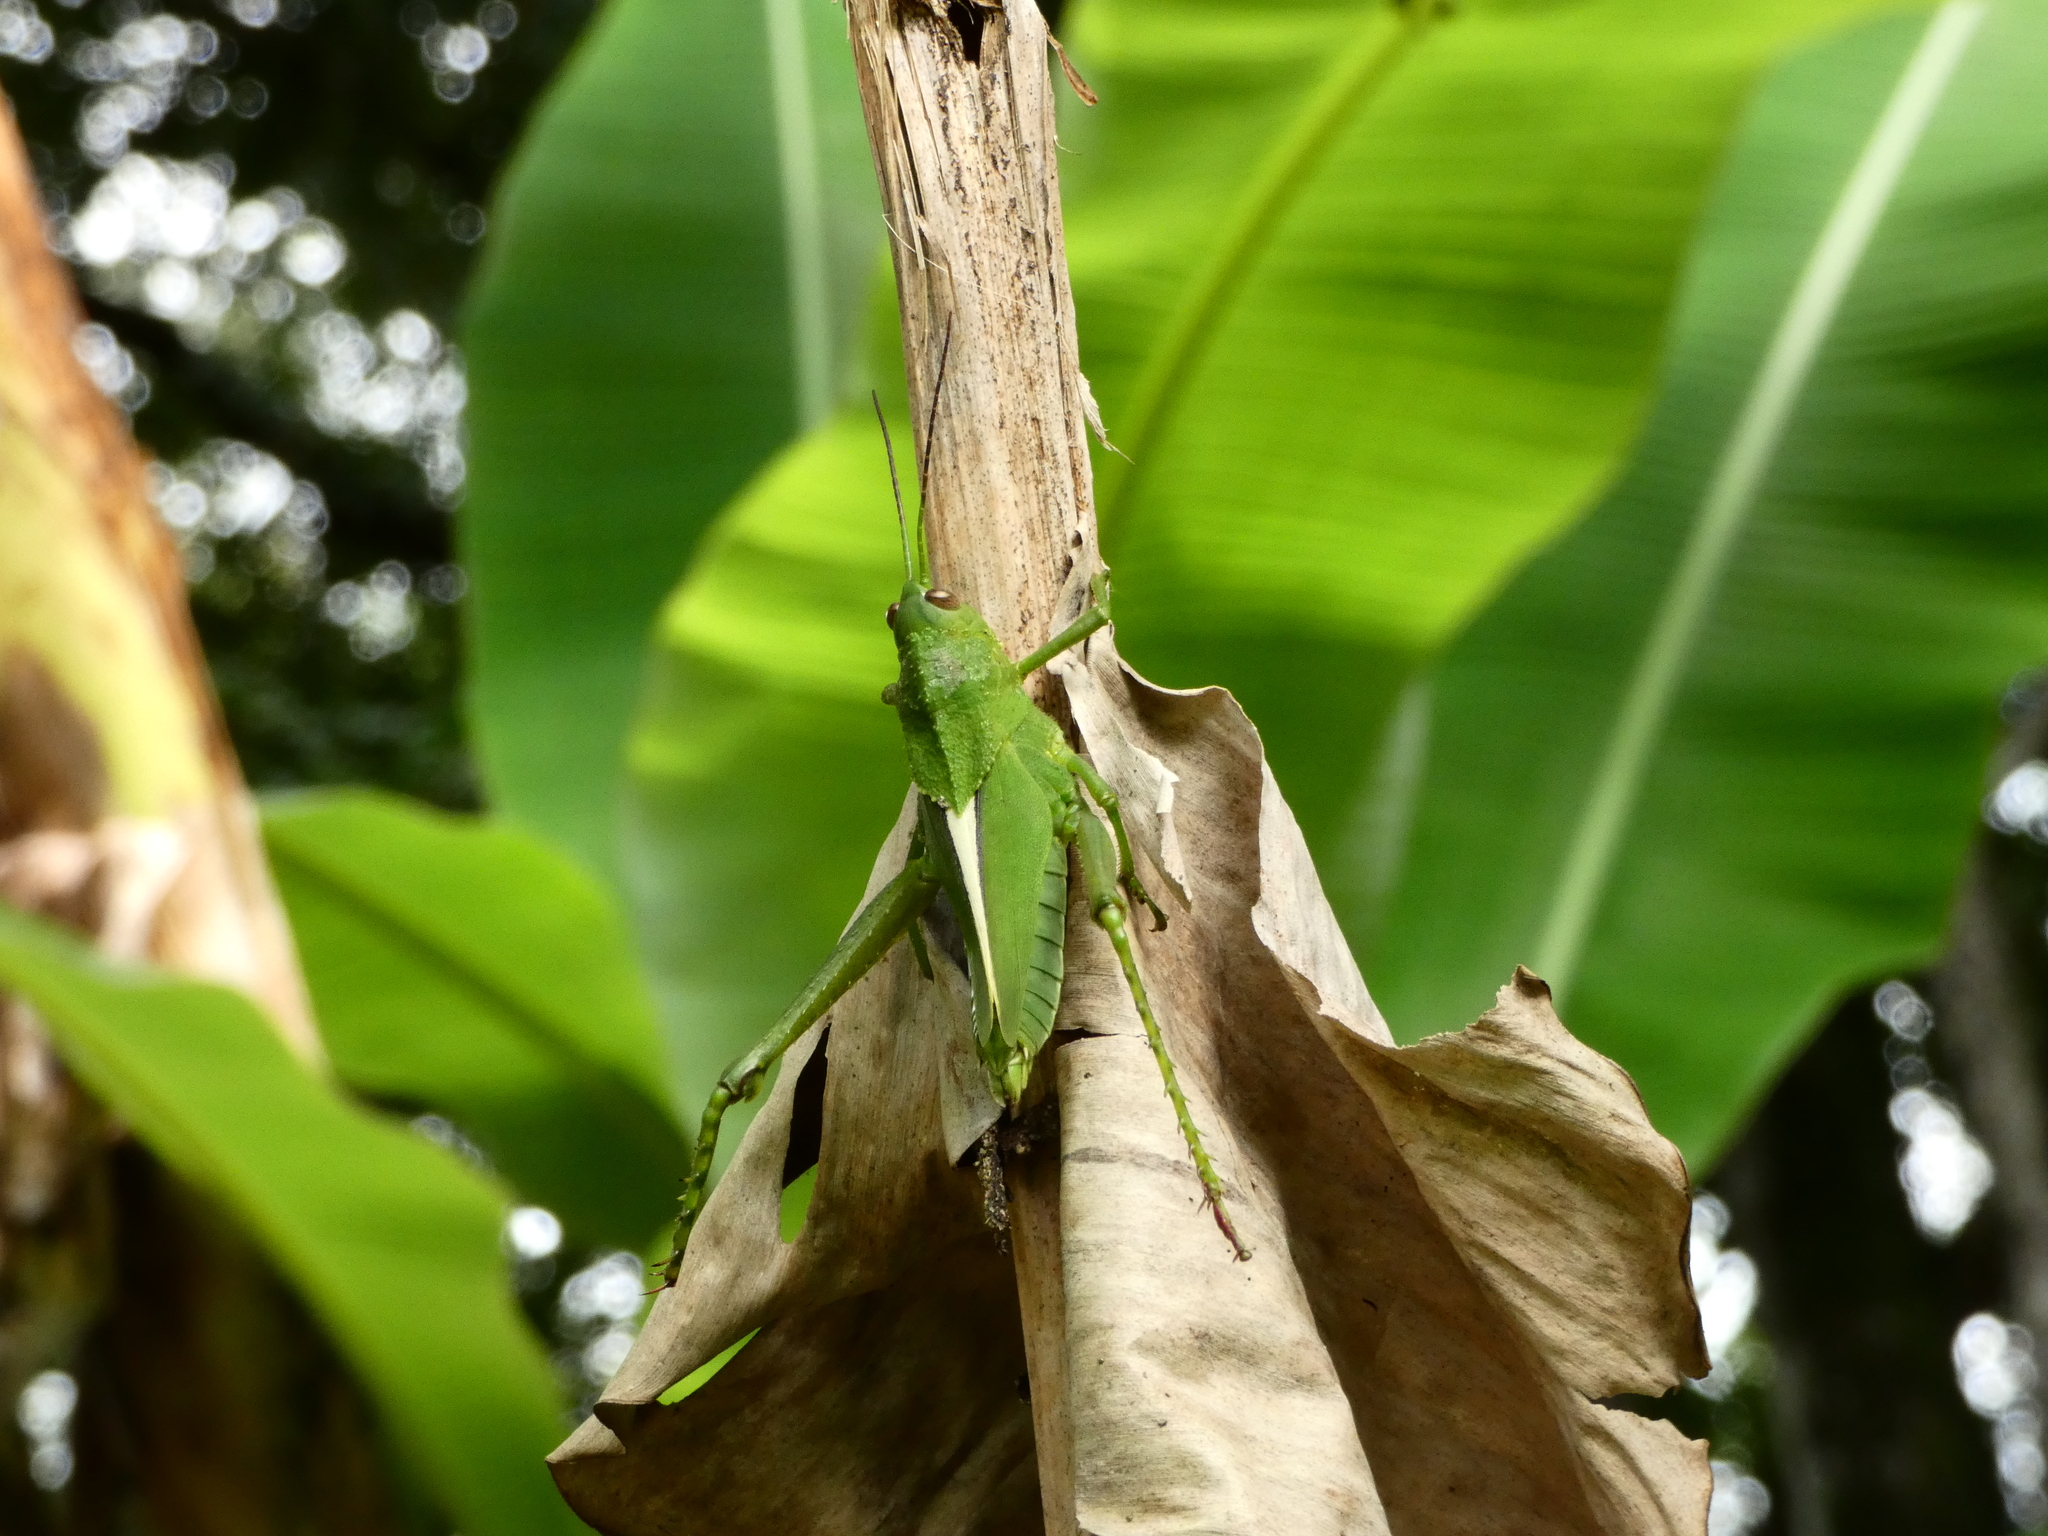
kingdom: Animalia
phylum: Arthropoda
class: Insecta
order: Orthoptera
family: Romaleidae
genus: Agriacris
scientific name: Agriacris auripennis
